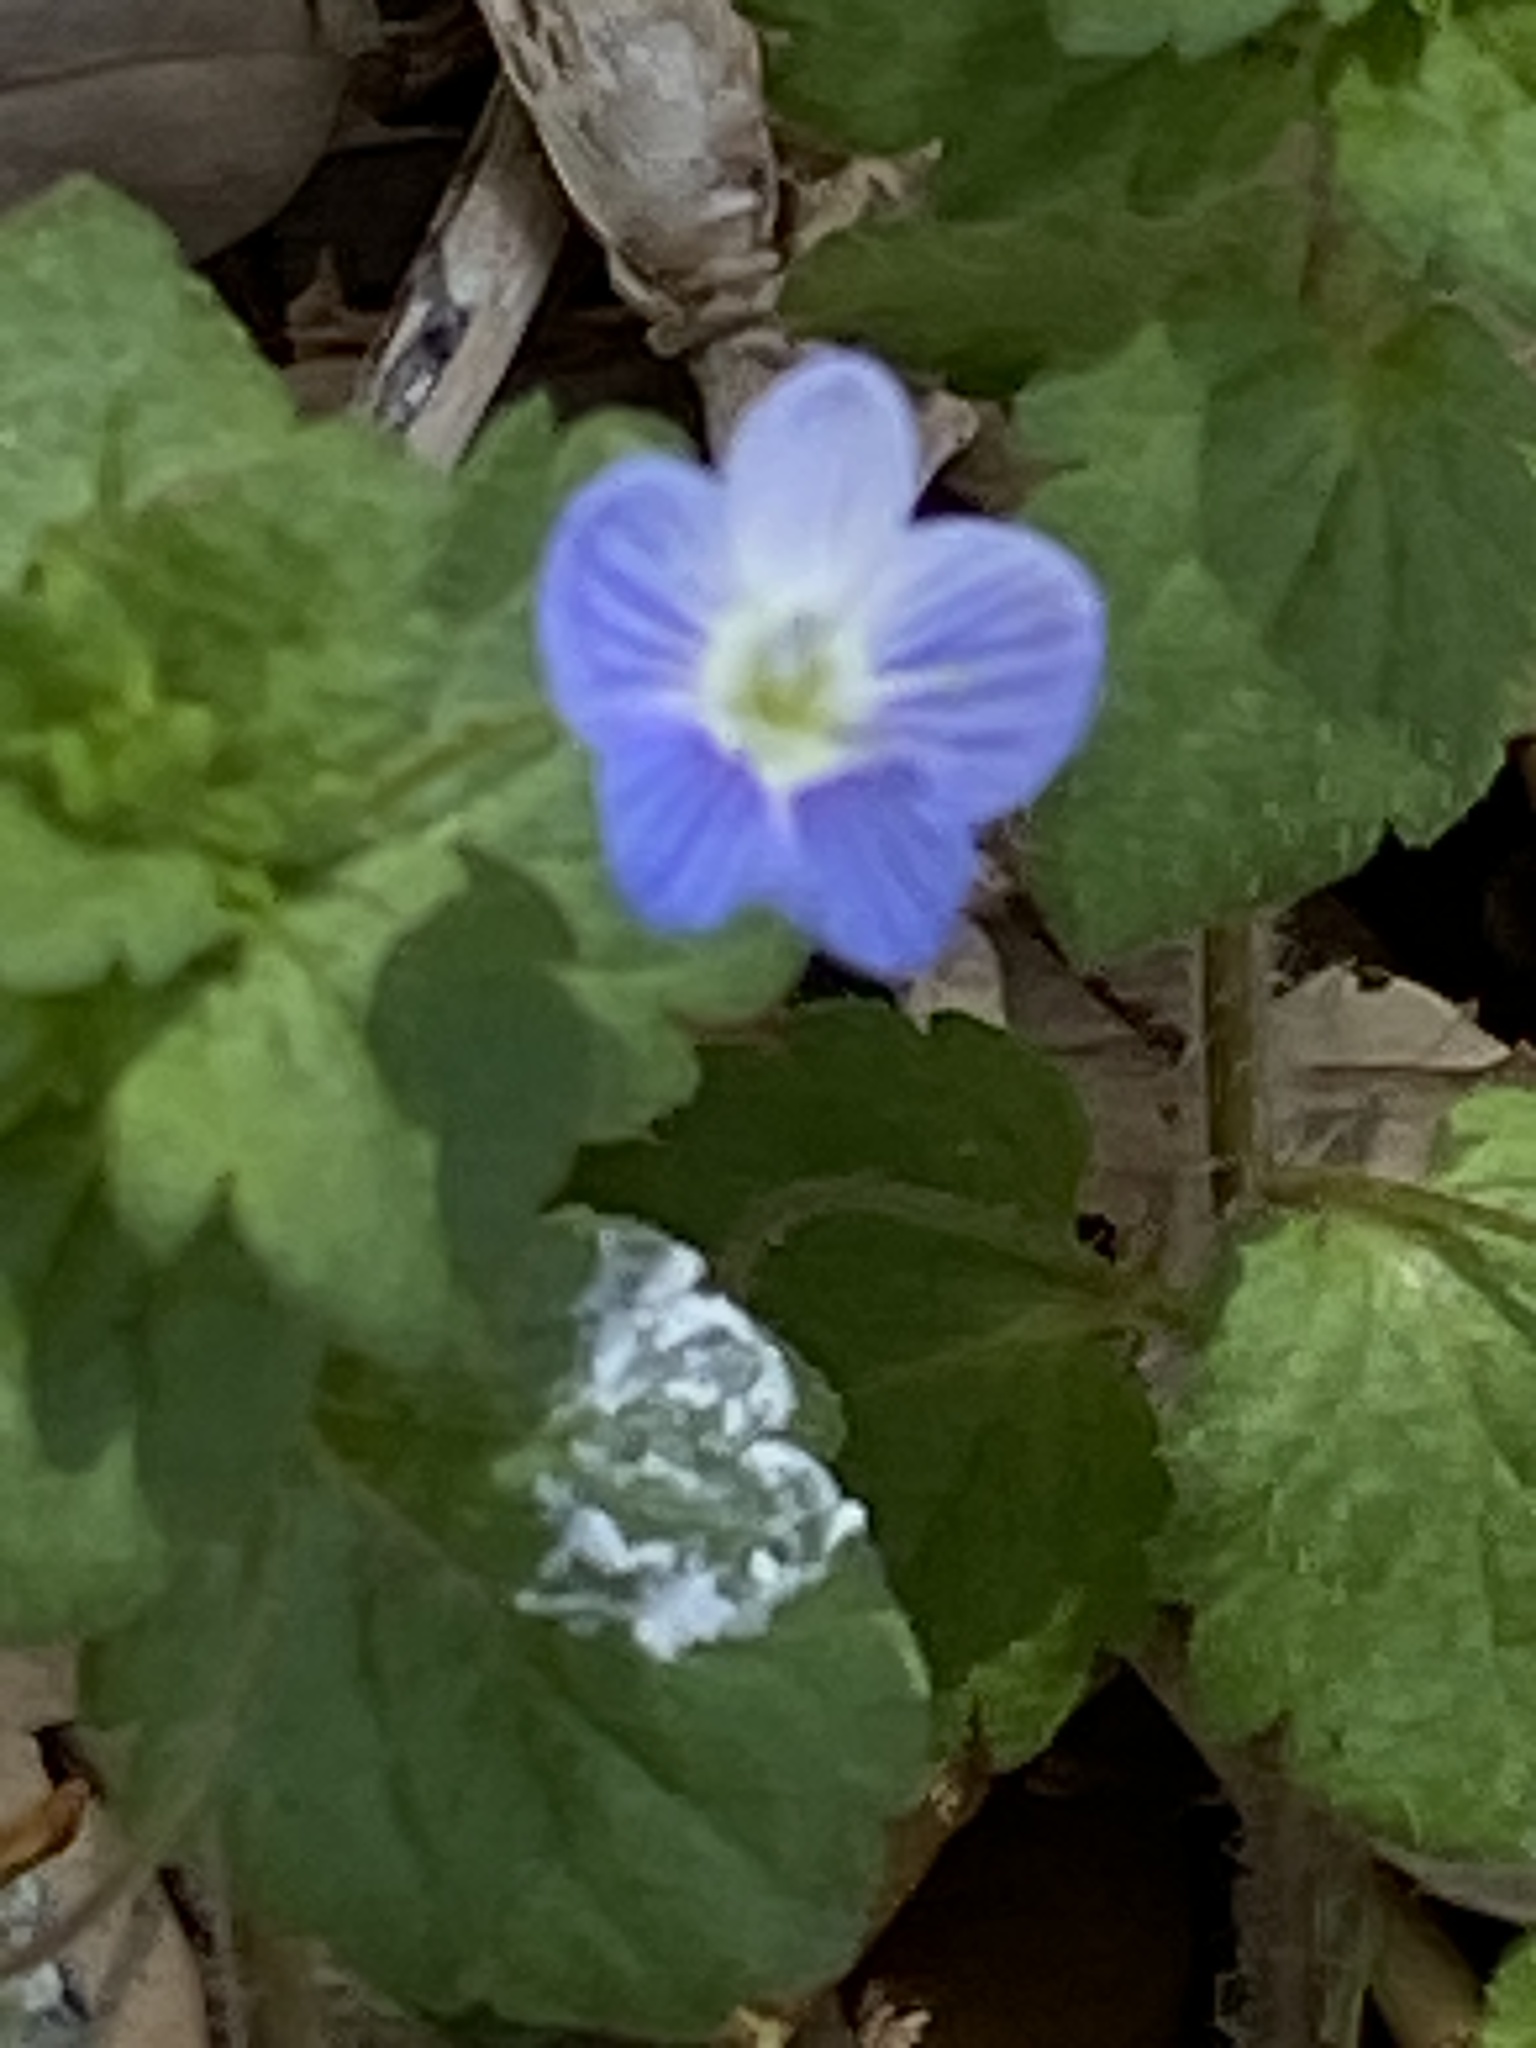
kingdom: Plantae
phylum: Tracheophyta
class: Magnoliopsida
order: Lamiales
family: Plantaginaceae
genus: Veronica
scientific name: Veronica persica
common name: Common field-speedwell
